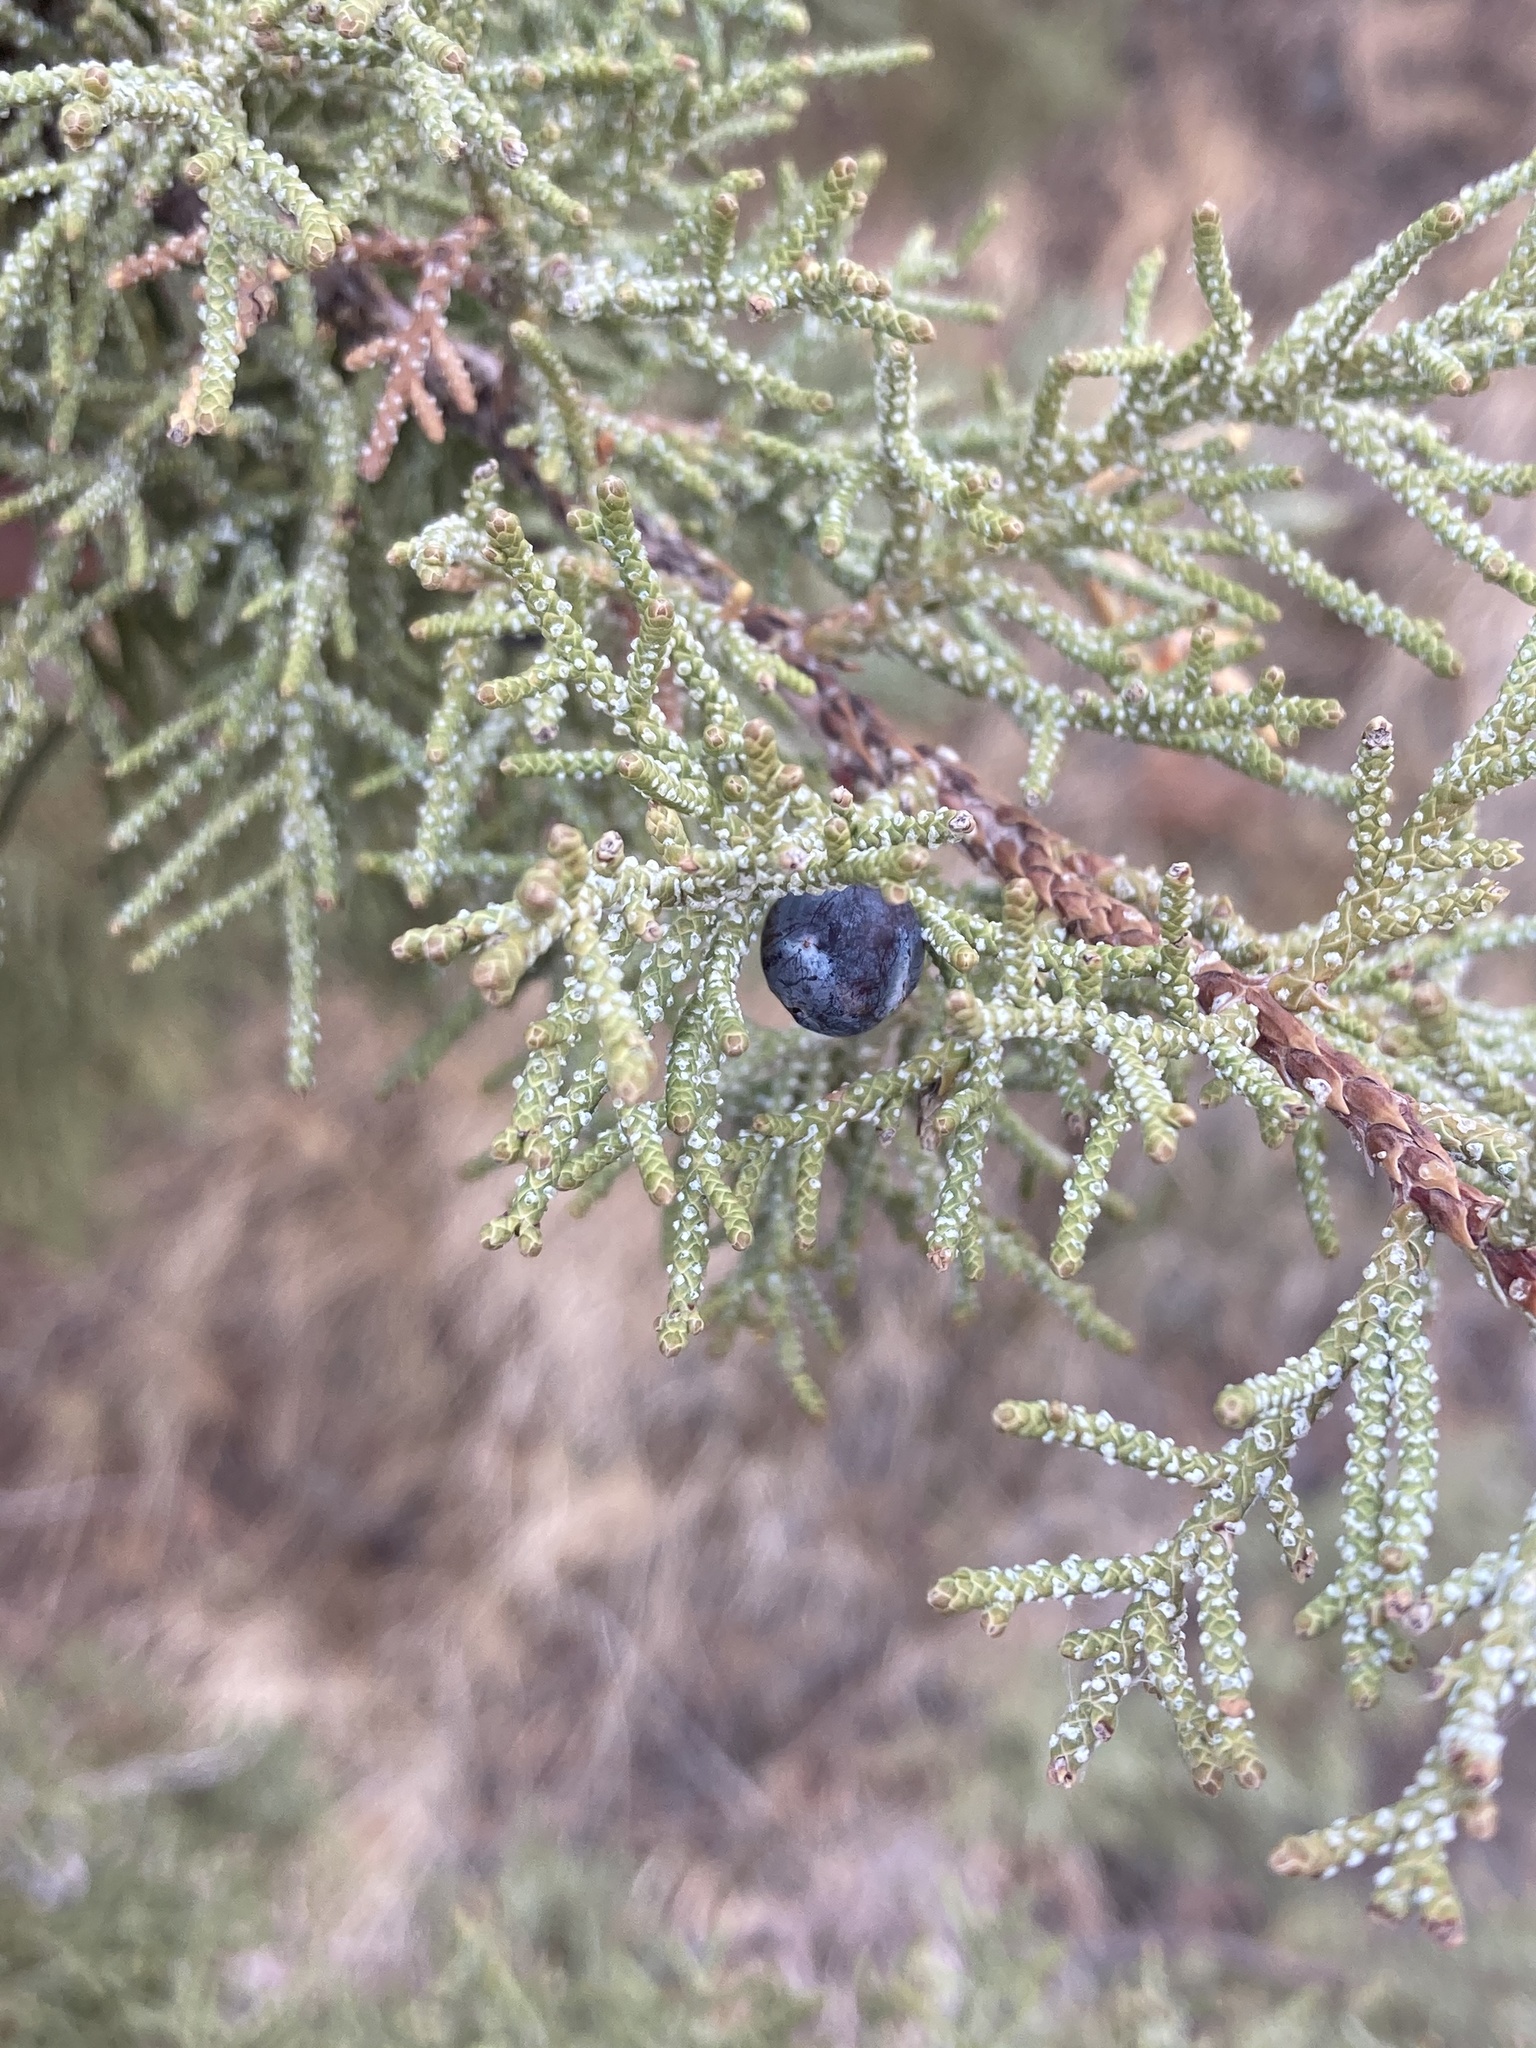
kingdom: Plantae
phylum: Tracheophyta
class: Pinopsida
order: Pinales
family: Cupressaceae
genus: Juniperus
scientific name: Juniperus occidentalis
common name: Western juniper
